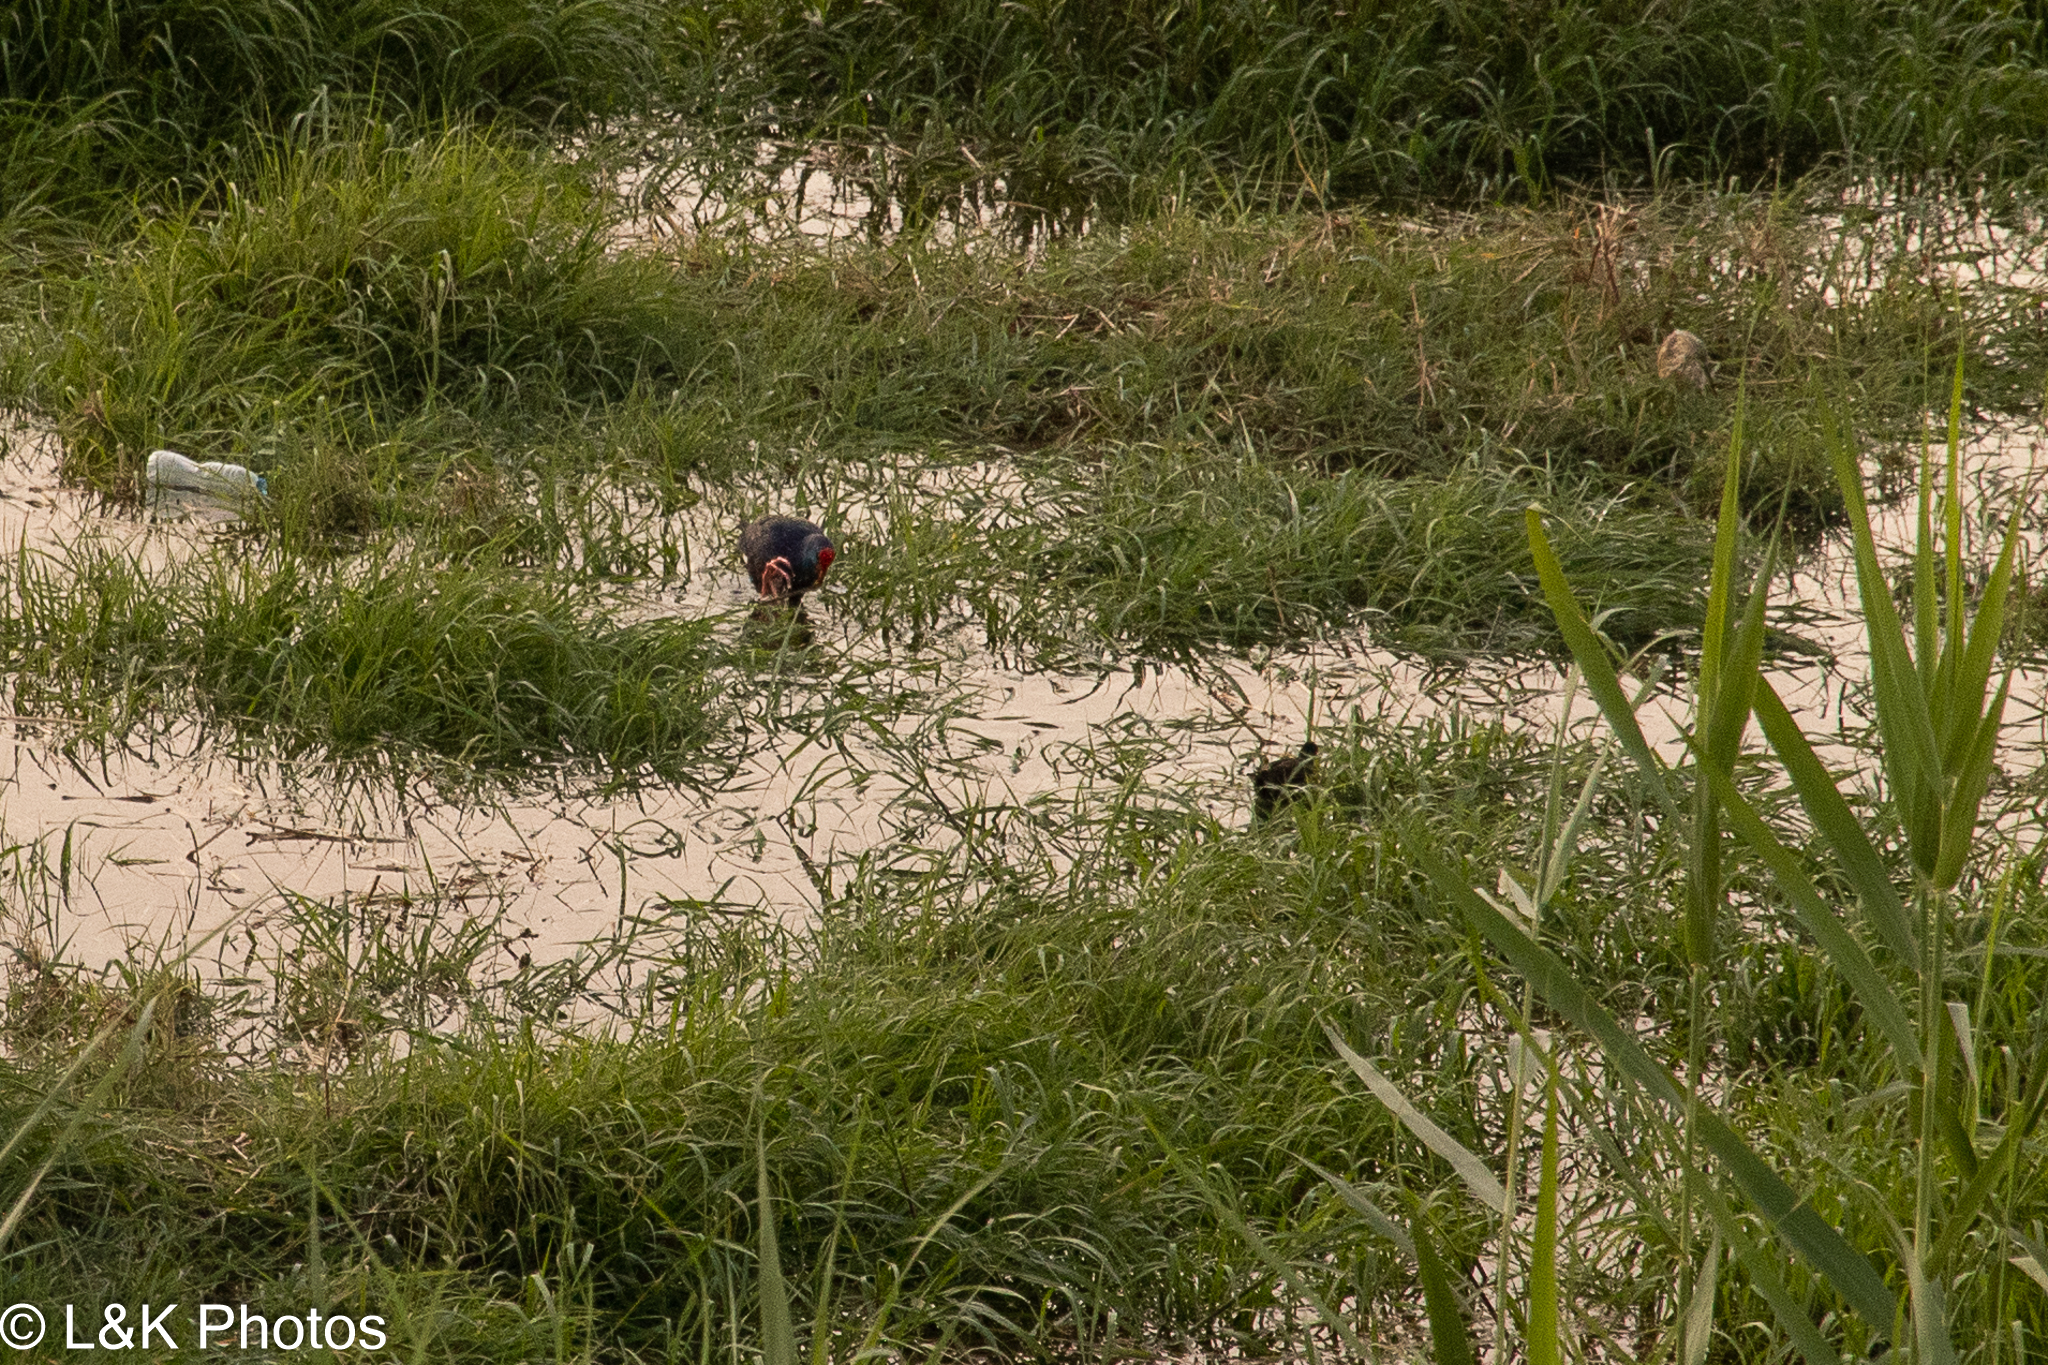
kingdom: Animalia
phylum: Chordata
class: Aves
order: Gruiformes
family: Rallidae
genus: Porphyrio
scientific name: Porphyrio porphyrio
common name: Purple swamphen
